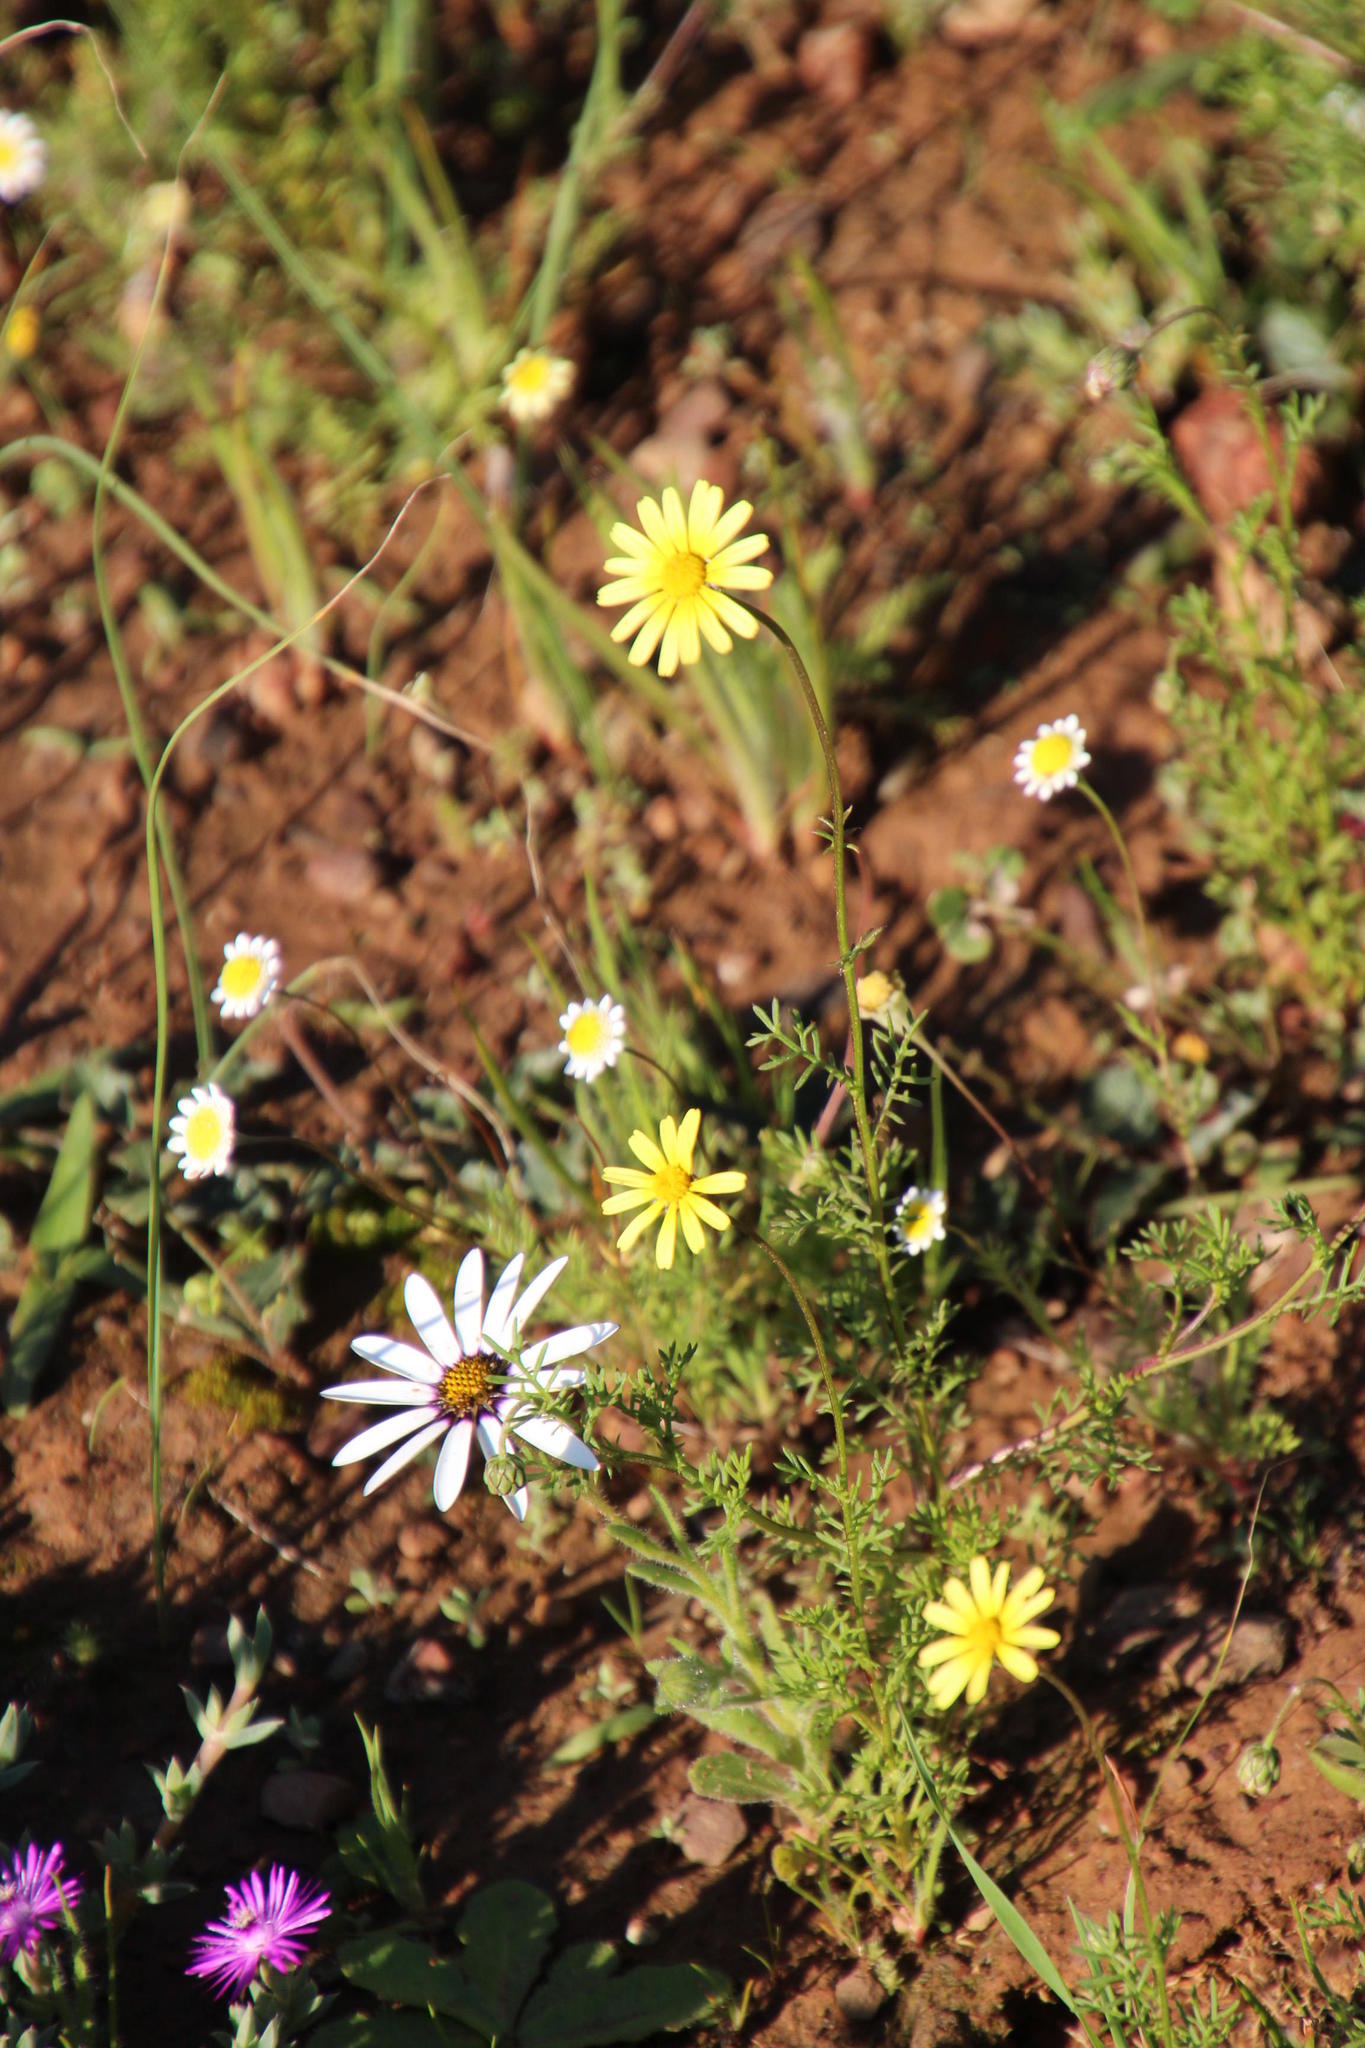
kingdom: Plantae
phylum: Tracheophyta
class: Magnoliopsida
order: Asterales
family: Asteraceae
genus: Ursinia
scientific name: Ursinia anthemoides
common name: Ursinia
